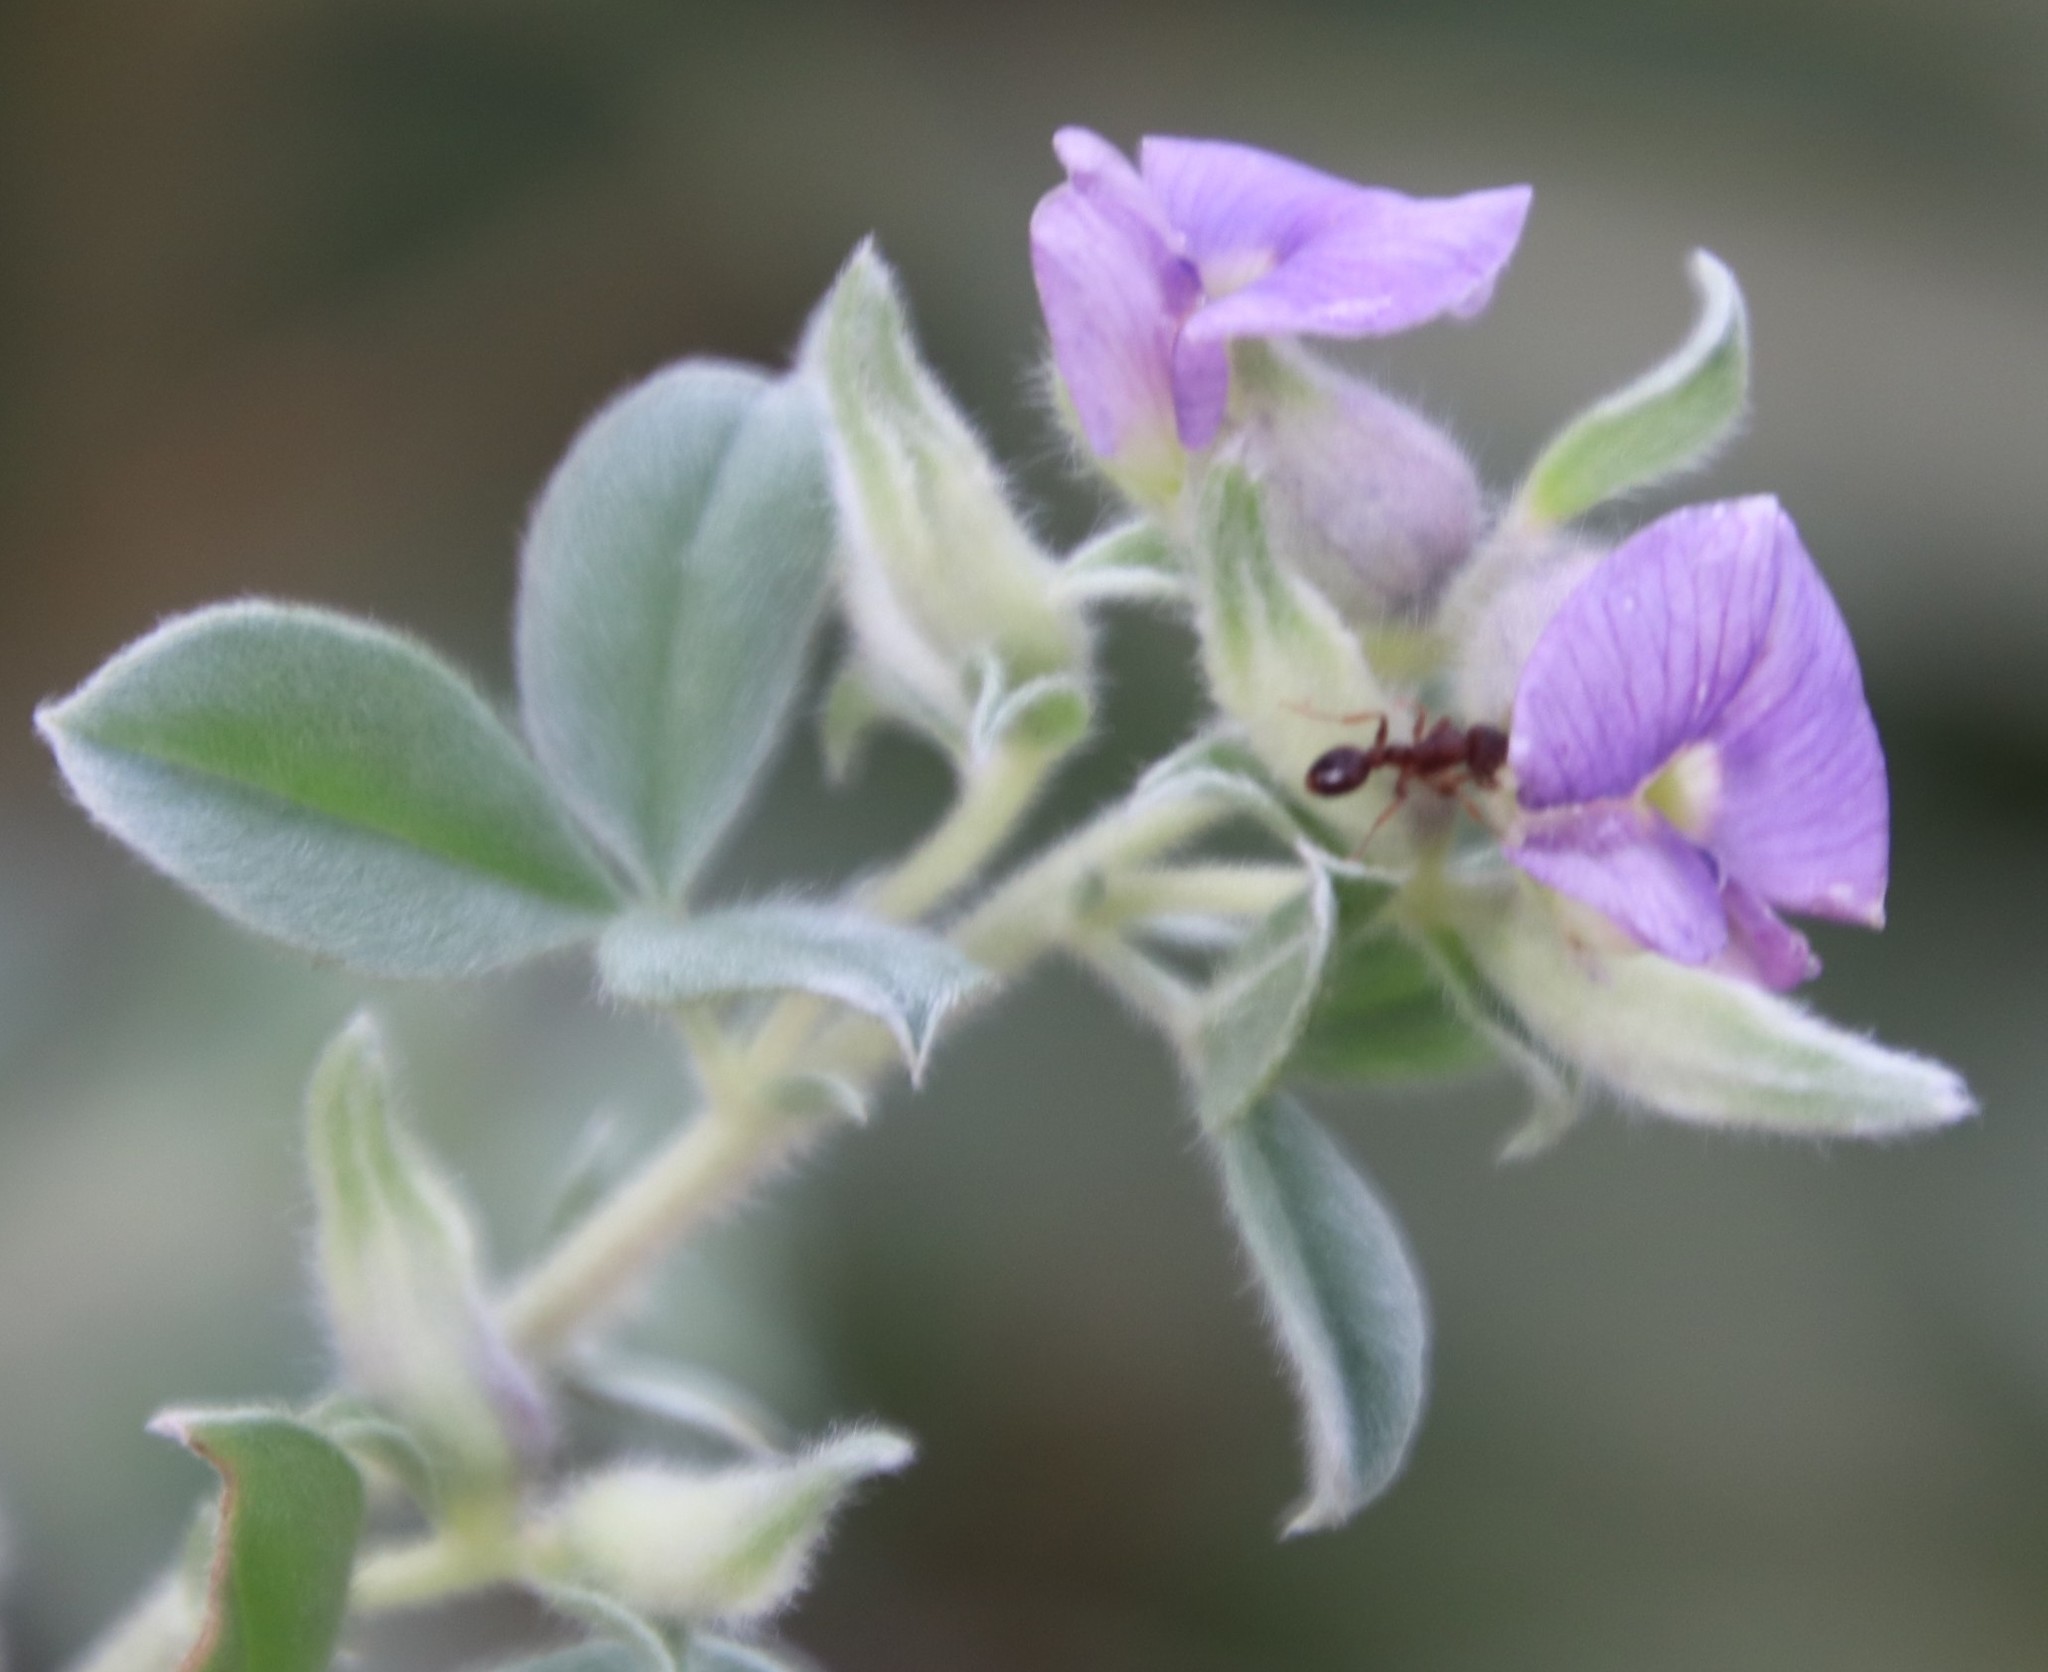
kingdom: Plantae
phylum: Tracheophyta
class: Magnoliopsida
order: Fabales
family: Fabaceae
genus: Lotononis
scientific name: Lotononis lotononoides
